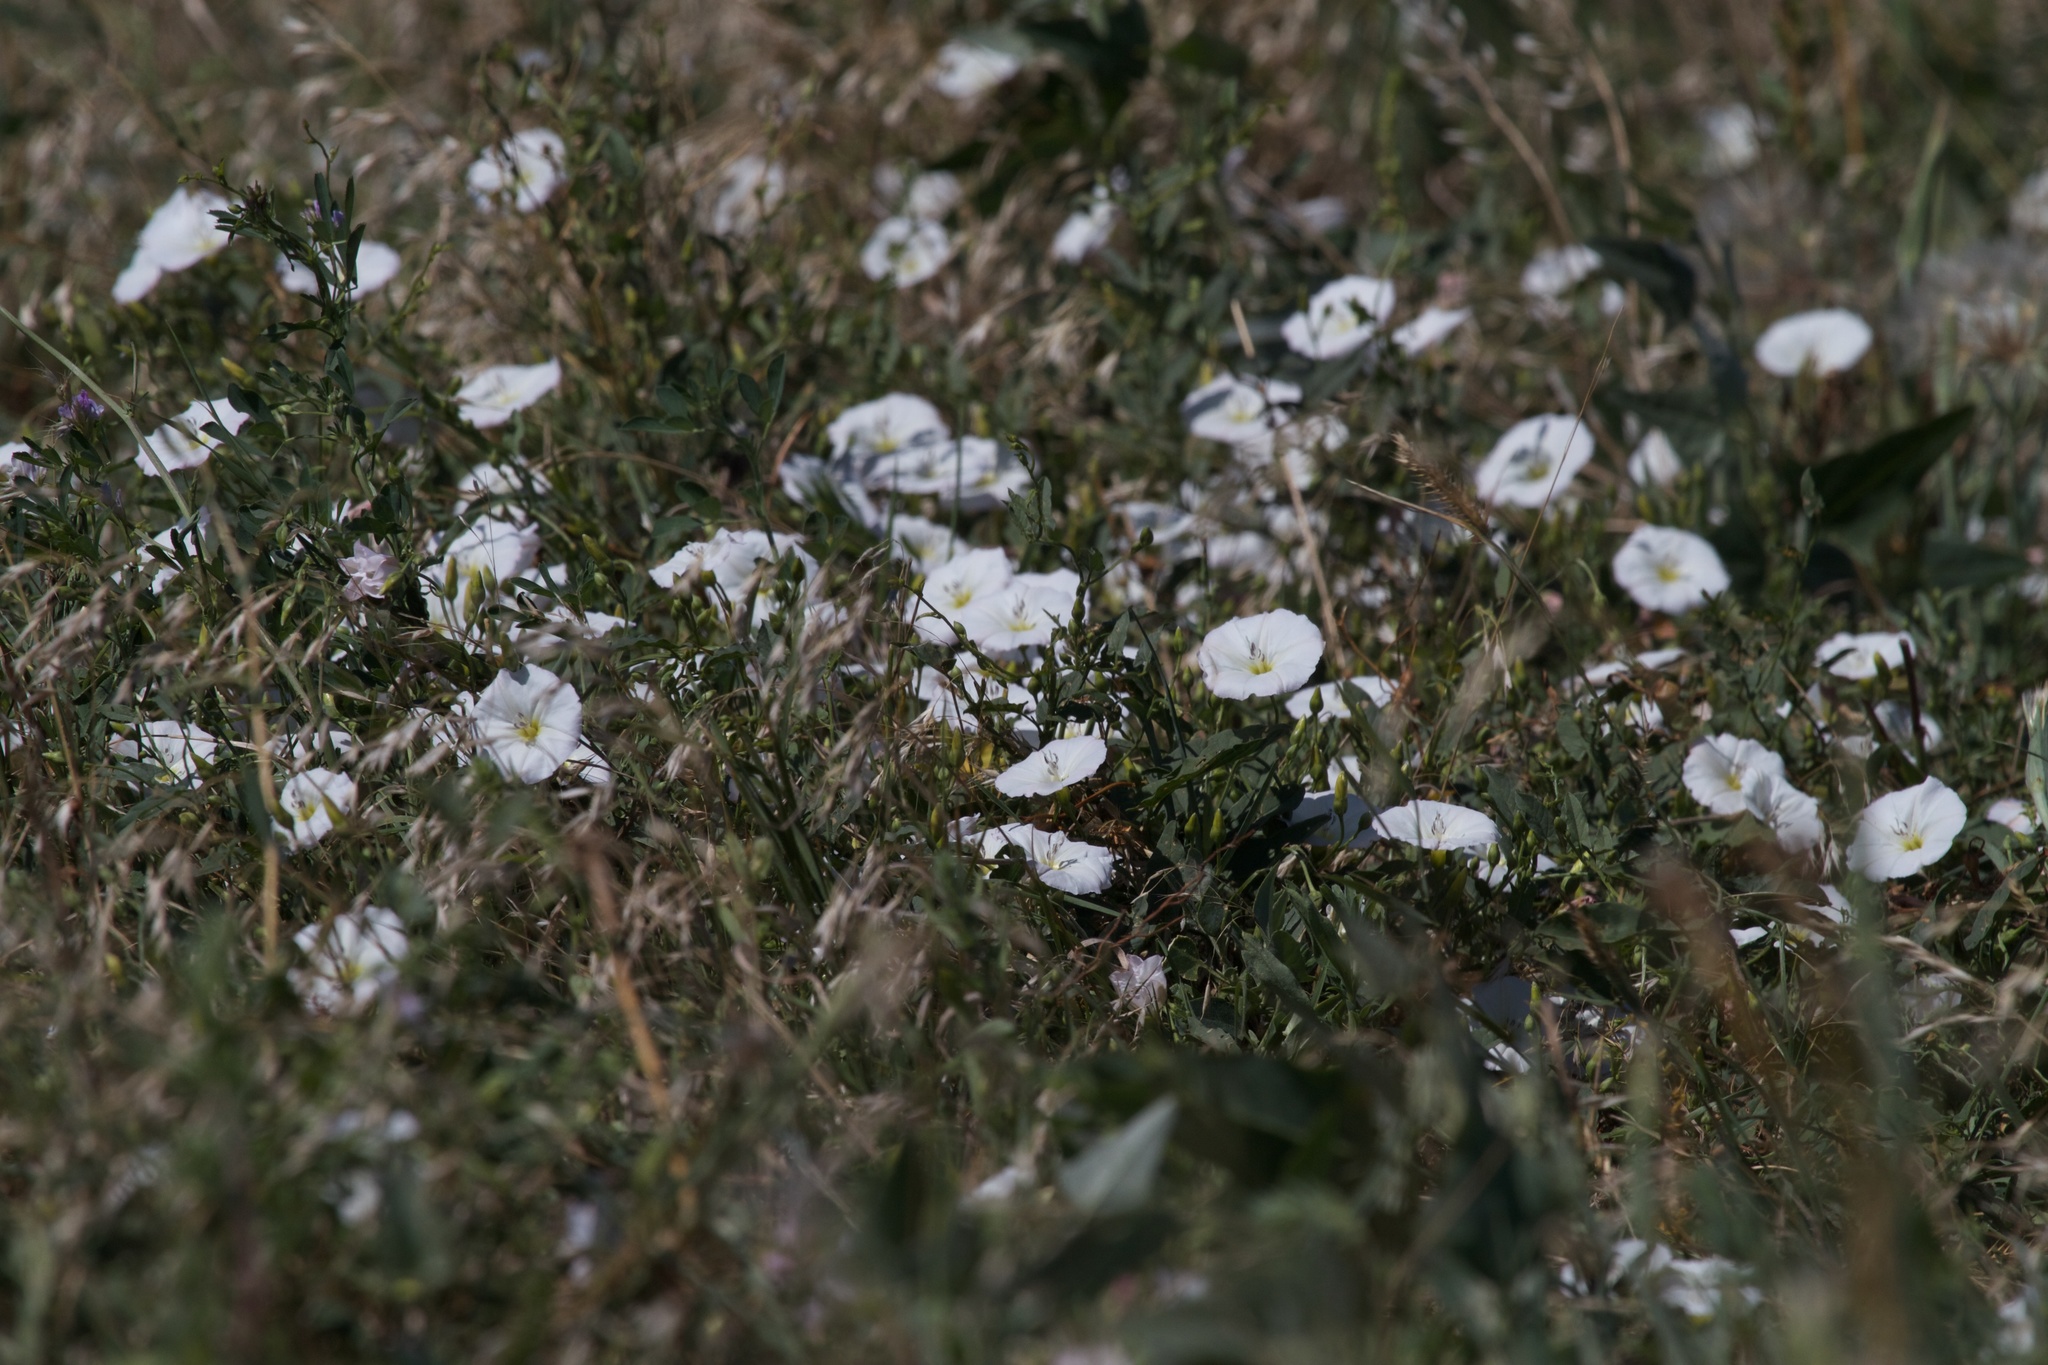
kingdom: Plantae
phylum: Tracheophyta
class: Magnoliopsida
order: Solanales
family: Convolvulaceae
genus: Convolvulus
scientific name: Convolvulus arvensis
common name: Field bindweed
